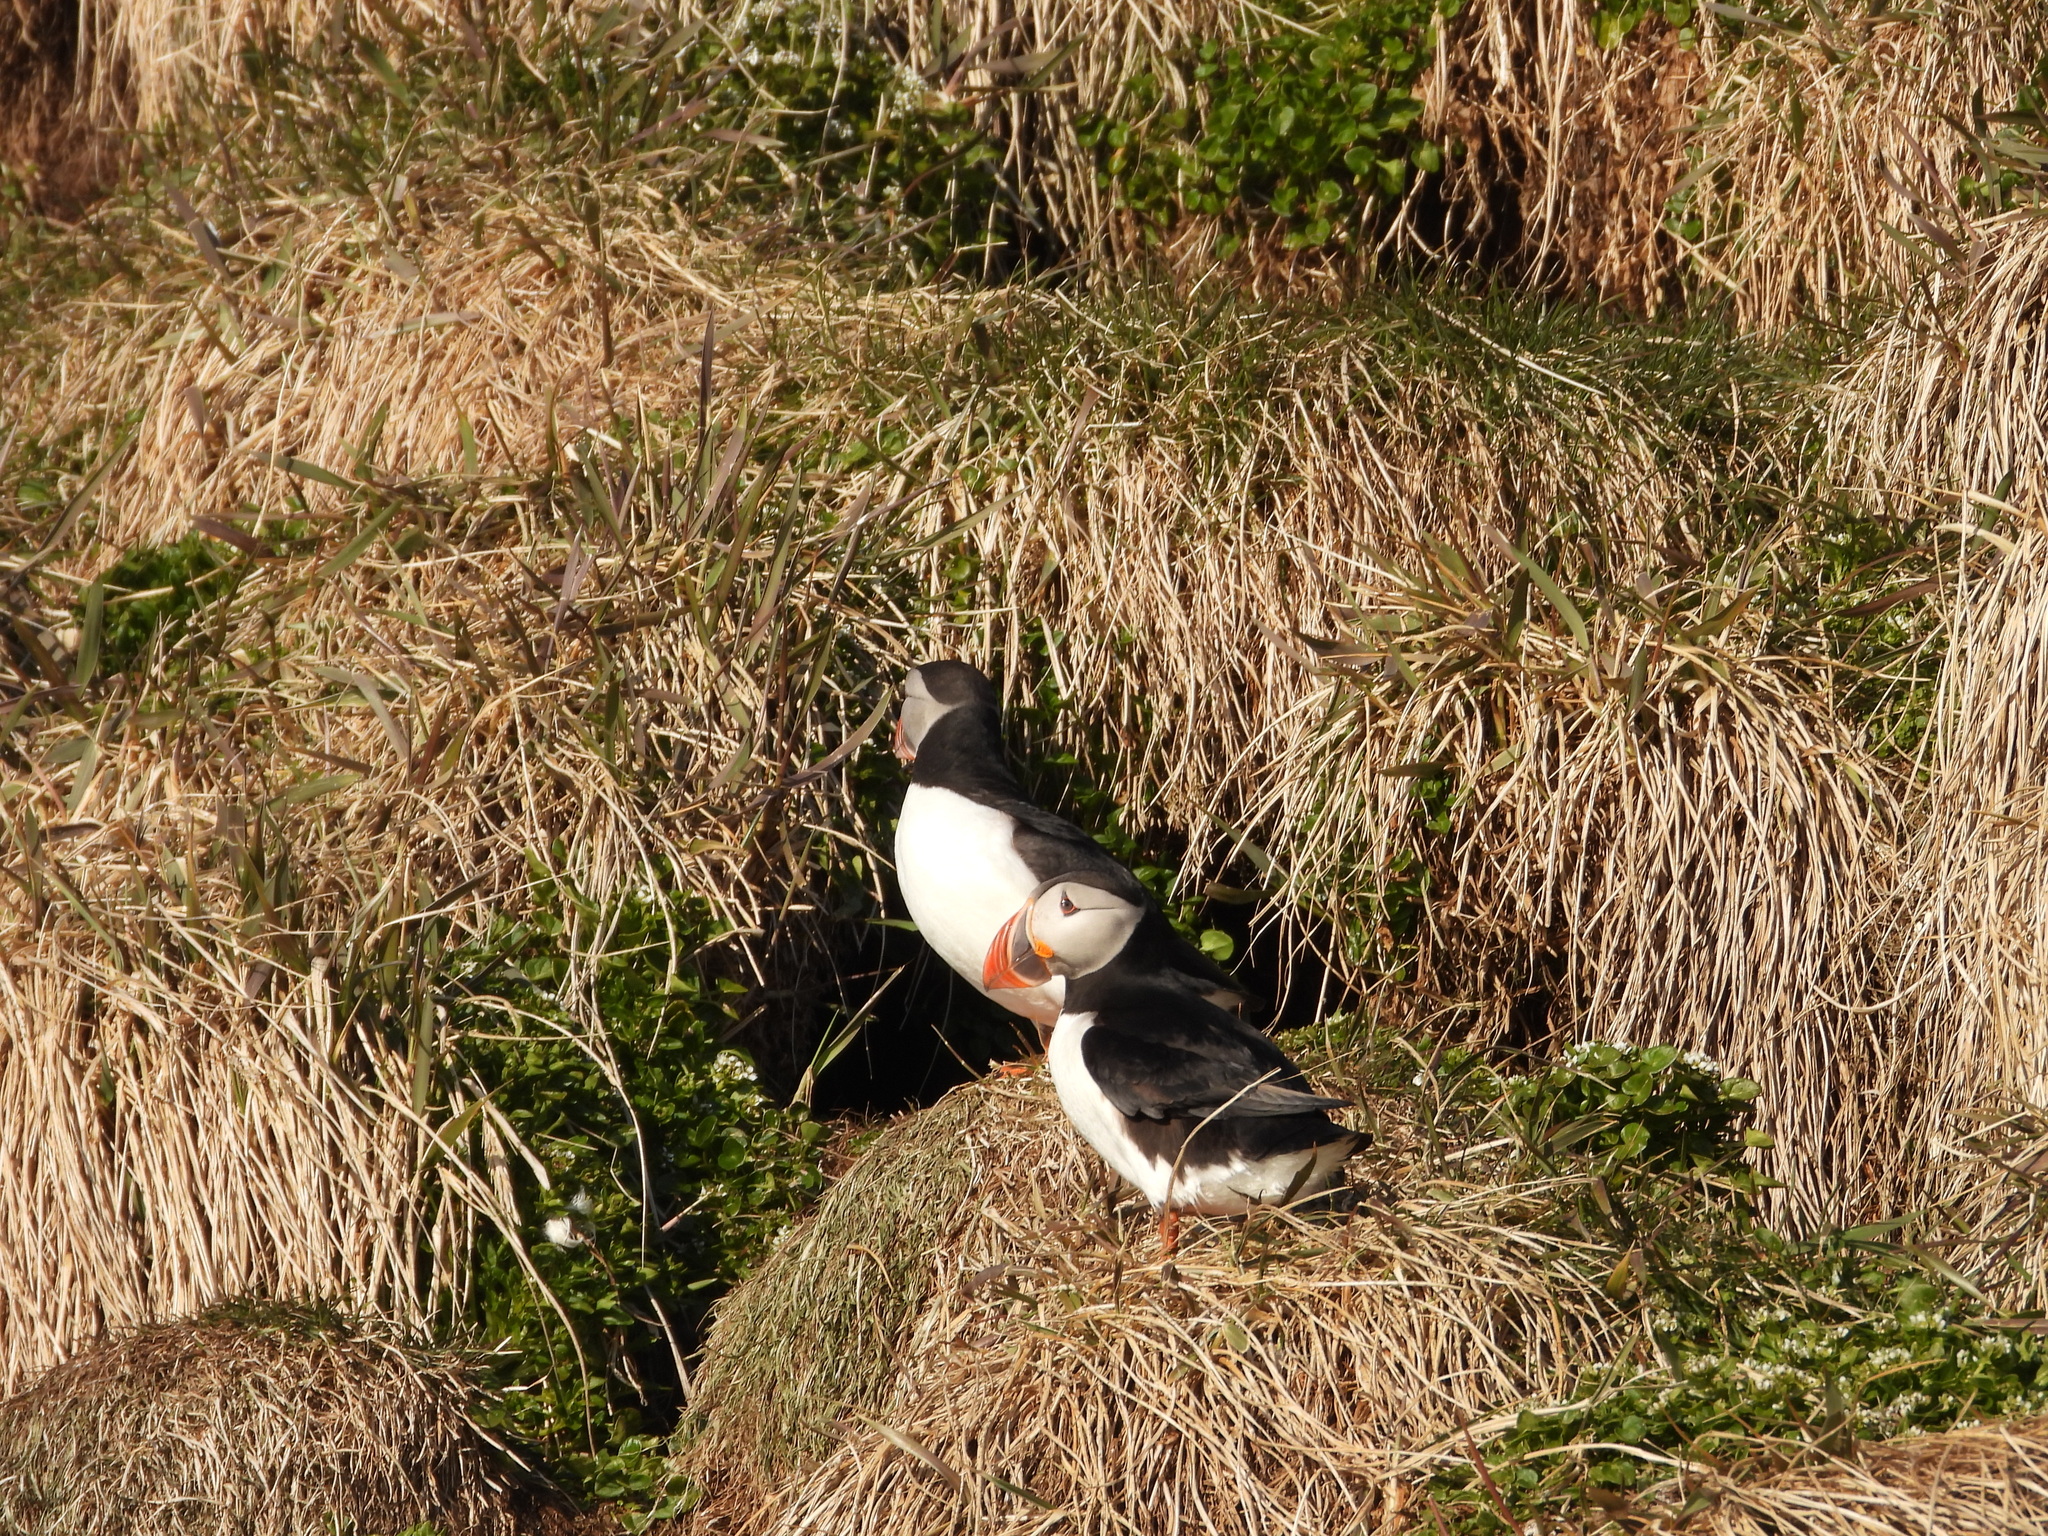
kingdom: Animalia
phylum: Chordata
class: Aves
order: Charadriiformes
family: Alcidae
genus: Fratercula
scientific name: Fratercula arctica
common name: Atlantic puffin
